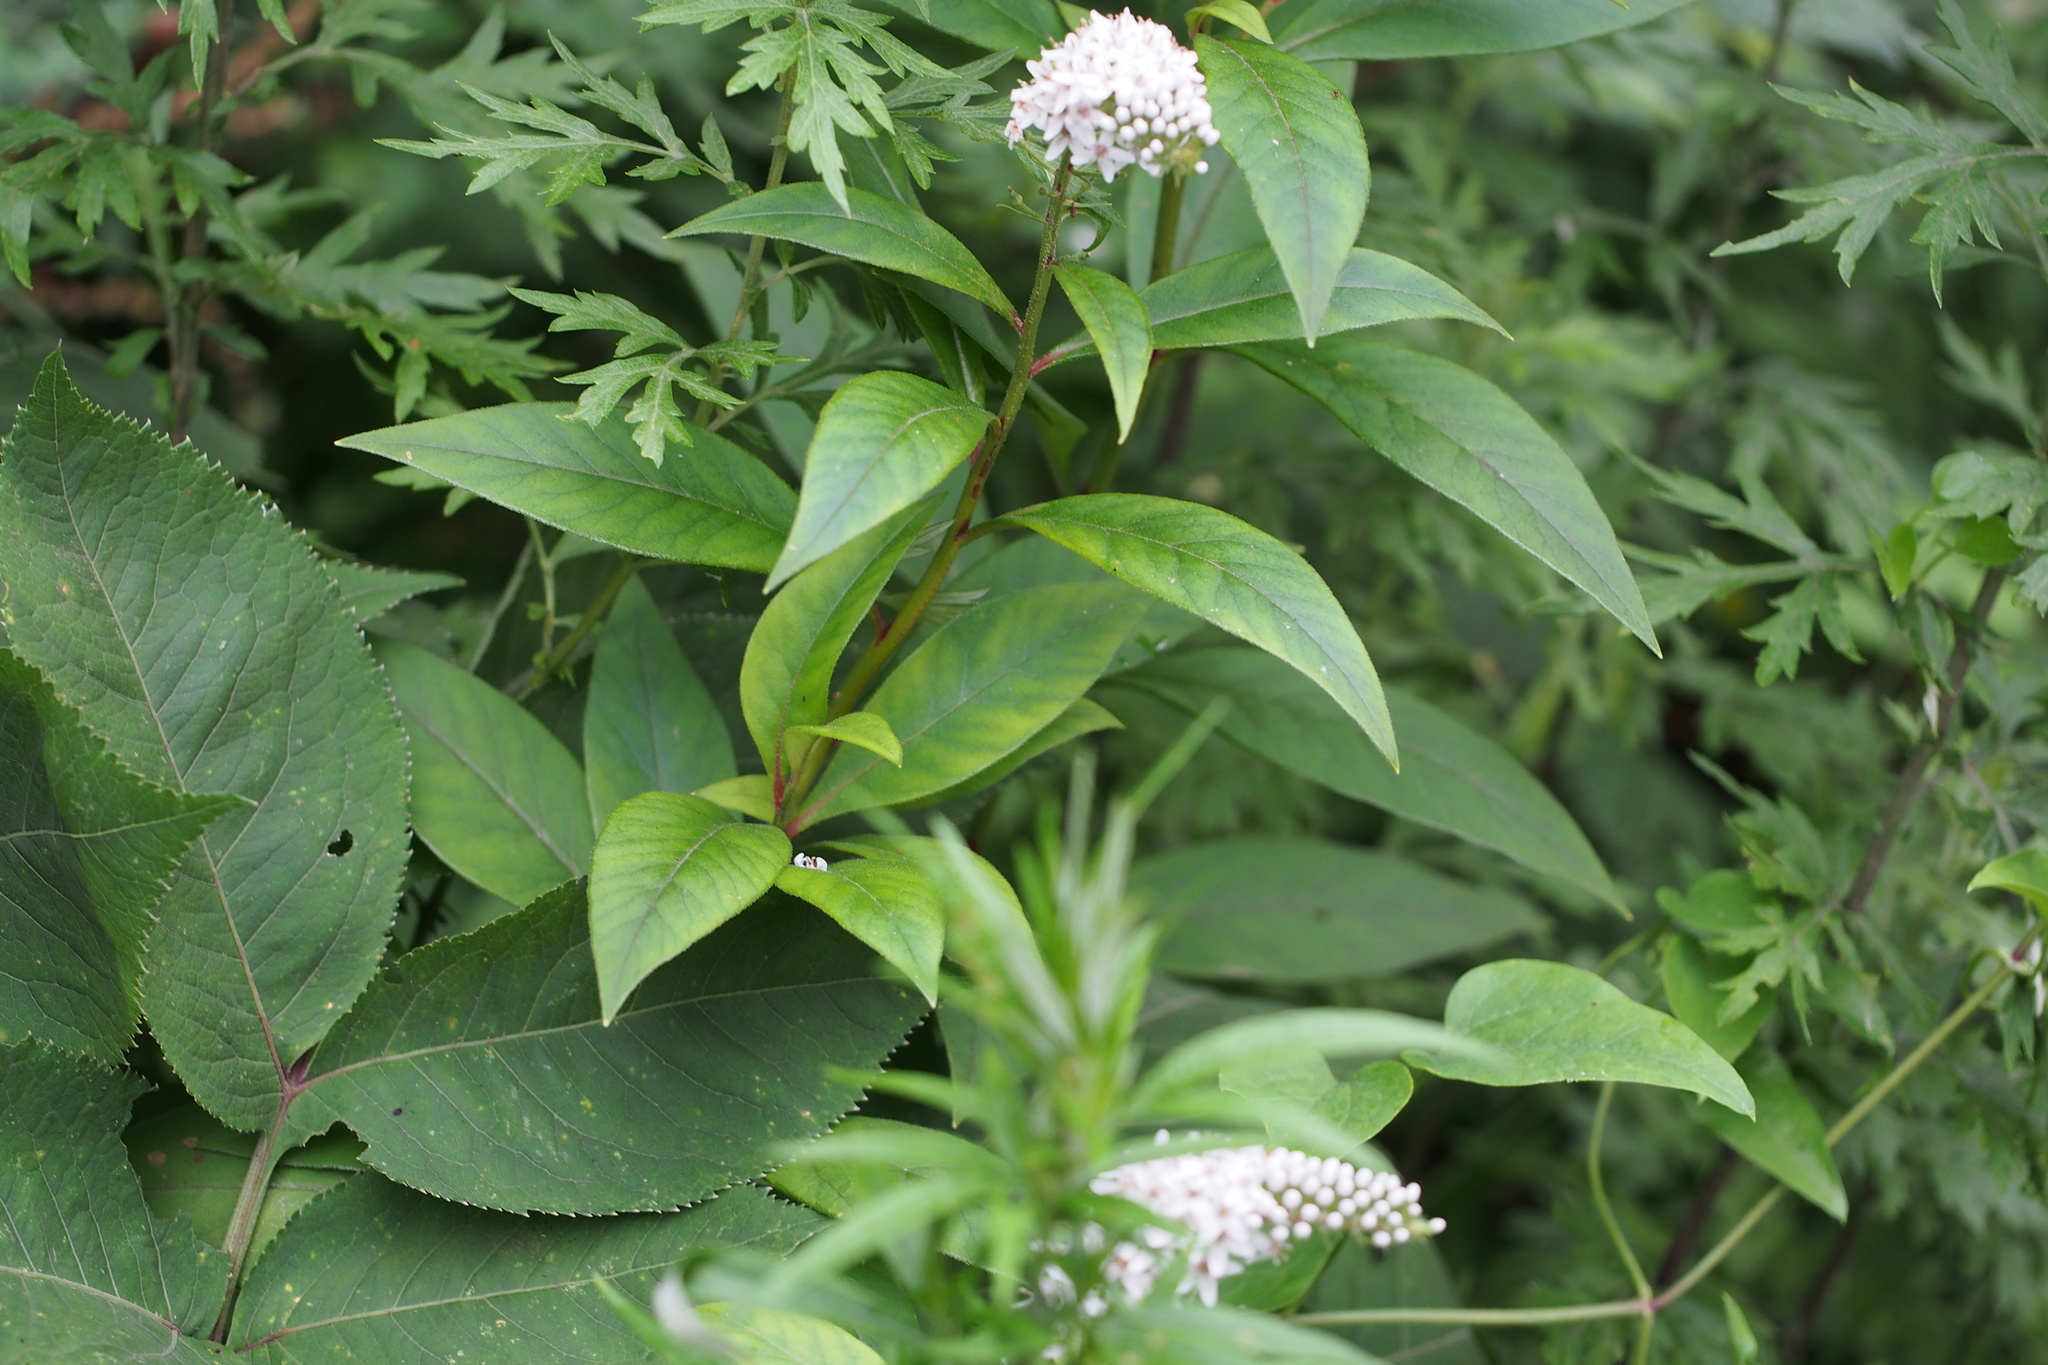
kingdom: Plantae
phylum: Tracheophyta
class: Magnoliopsida
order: Ericales
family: Primulaceae
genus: Lysimachia
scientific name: Lysimachia clethroides
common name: Gooseneck loosestrife
